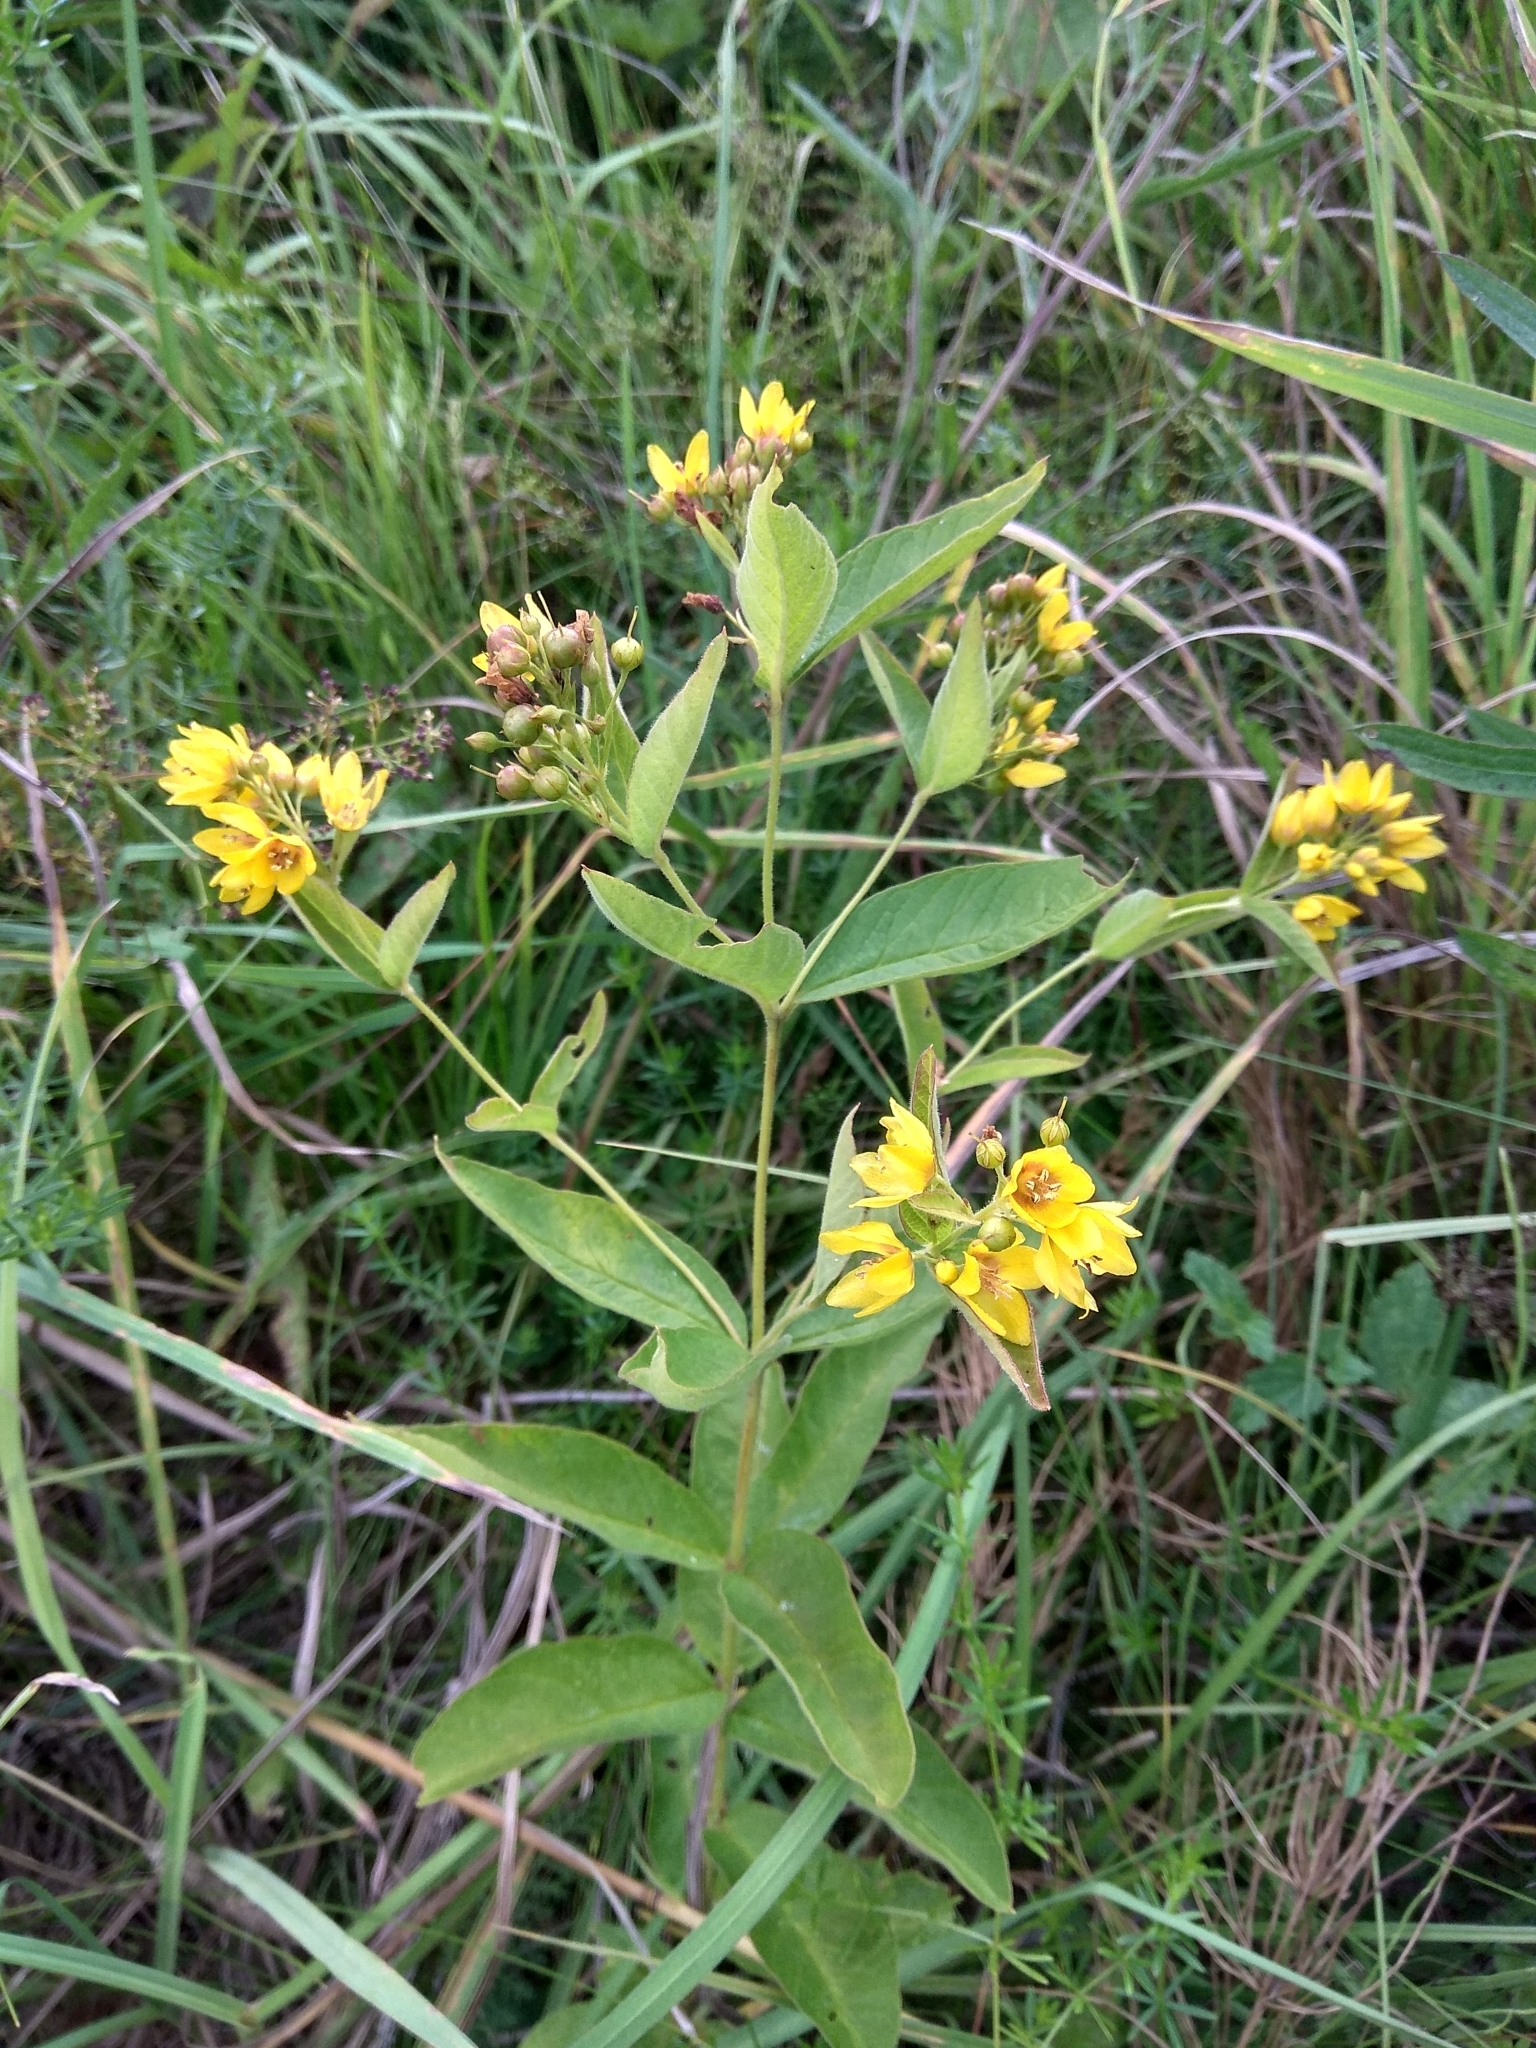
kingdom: Plantae
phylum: Tracheophyta
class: Magnoliopsida
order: Ericales
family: Primulaceae
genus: Lysimachia
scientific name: Lysimachia vulgaris
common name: Yellow loosestrife
